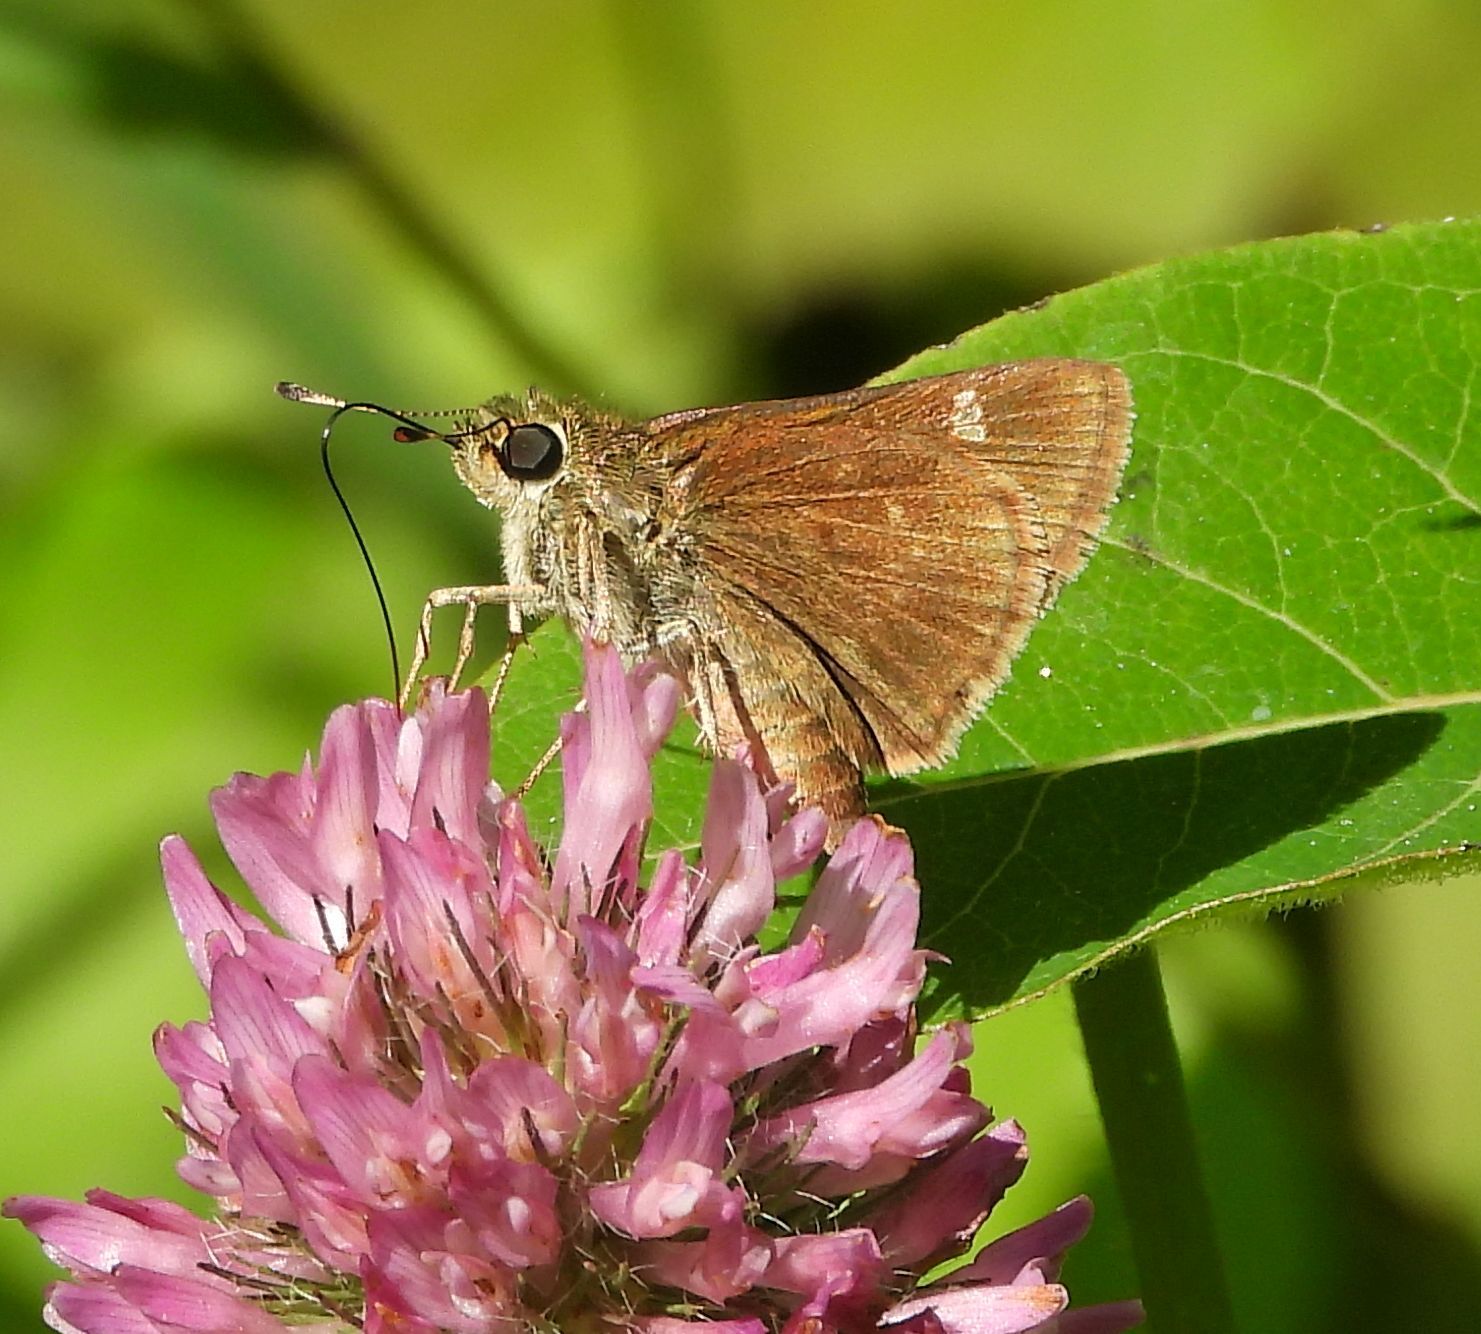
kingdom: Animalia
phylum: Arthropoda
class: Insecta
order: Lepidoptera
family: Hesperiidae
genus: Vernia
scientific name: Vernia verna
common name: Little glassywing
